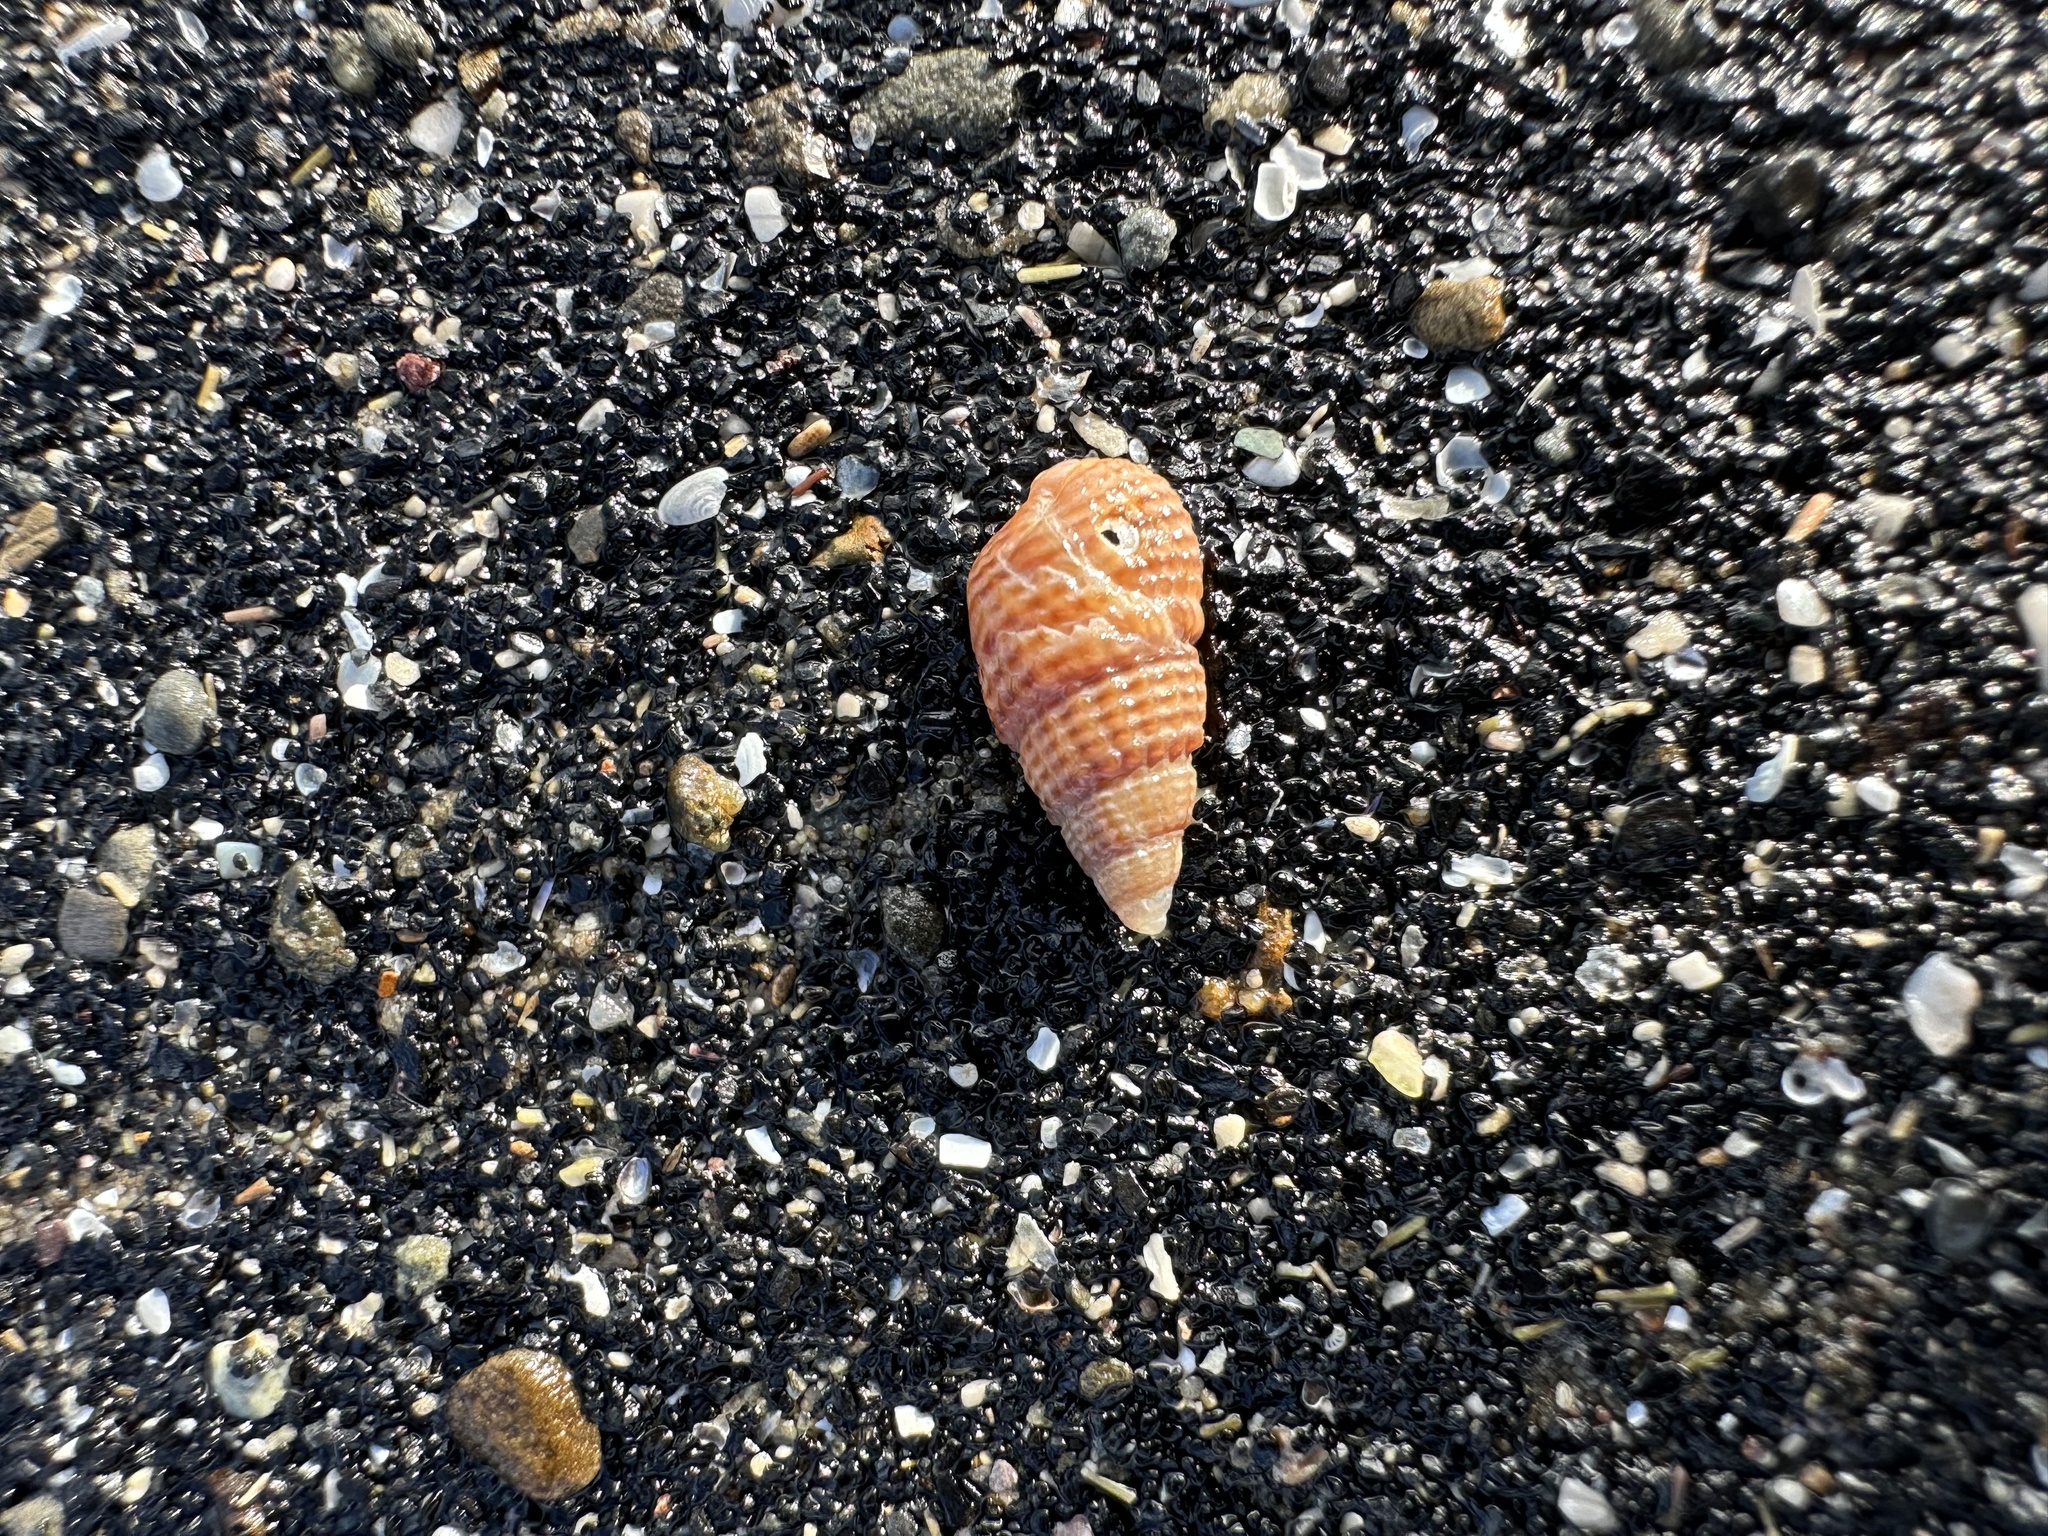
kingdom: Animalia
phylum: Mollusca
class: Gastropoda
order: Neogastropoda
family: Nassariidae
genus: Ilyanassa
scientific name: Ilyanassa trivittata
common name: Three-line mudsnail
